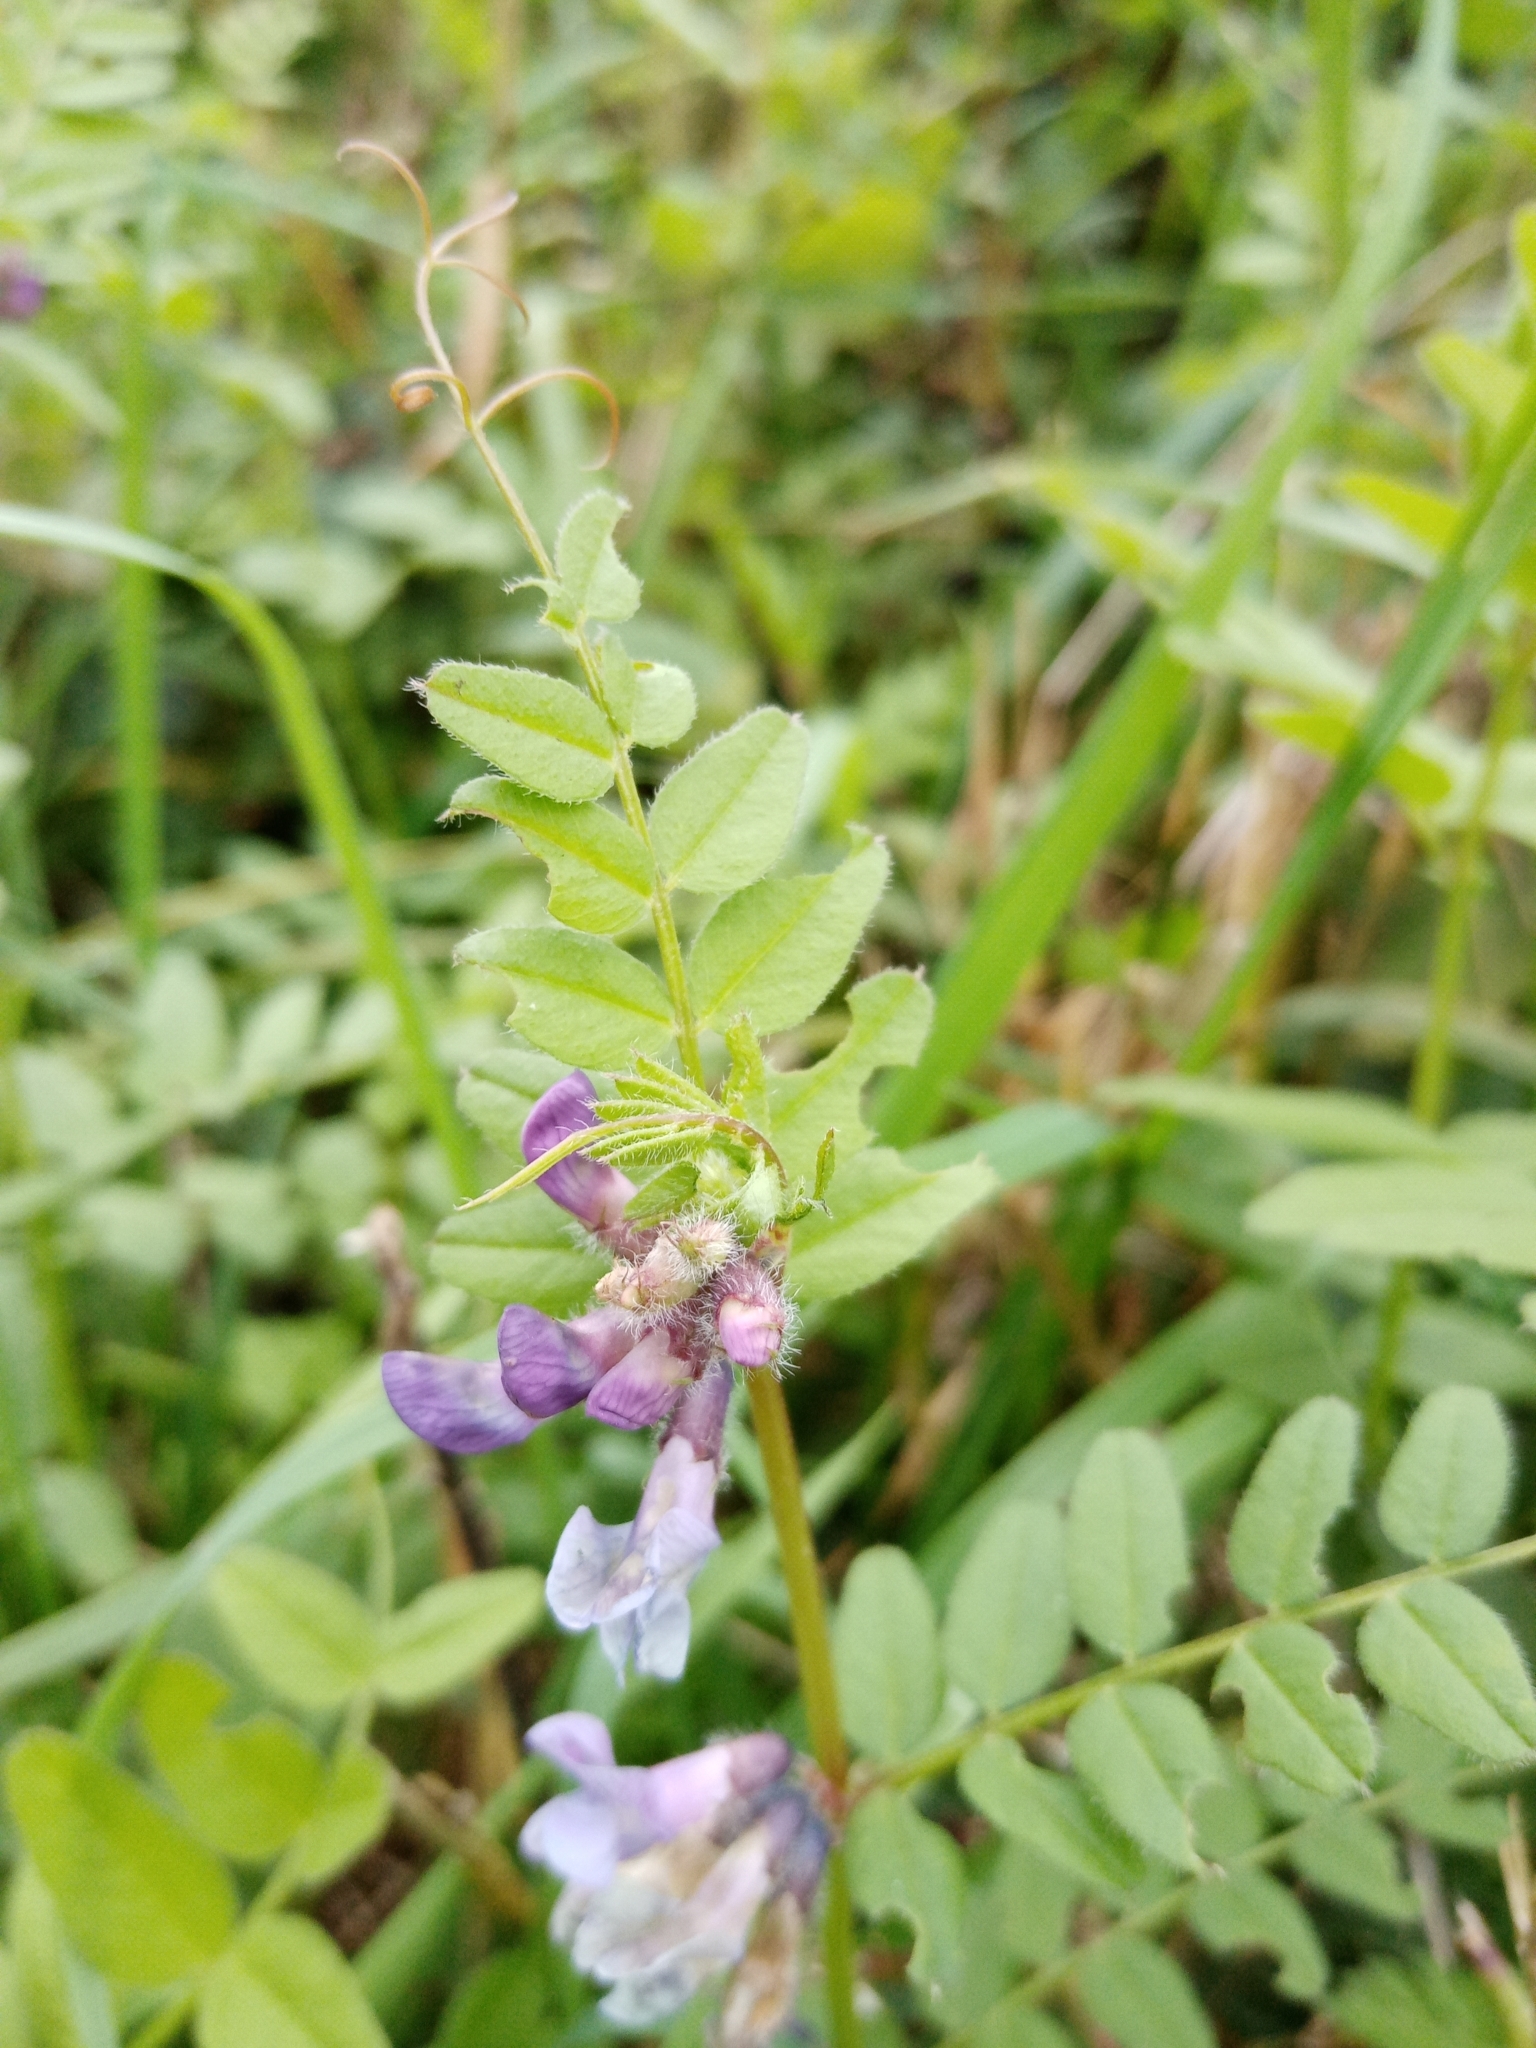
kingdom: Plantae
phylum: Tracheophyta
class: Magnoliopsida
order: Fabales
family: Fabaceae
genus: Vicia
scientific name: Vicia sepium
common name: Bush vetch
